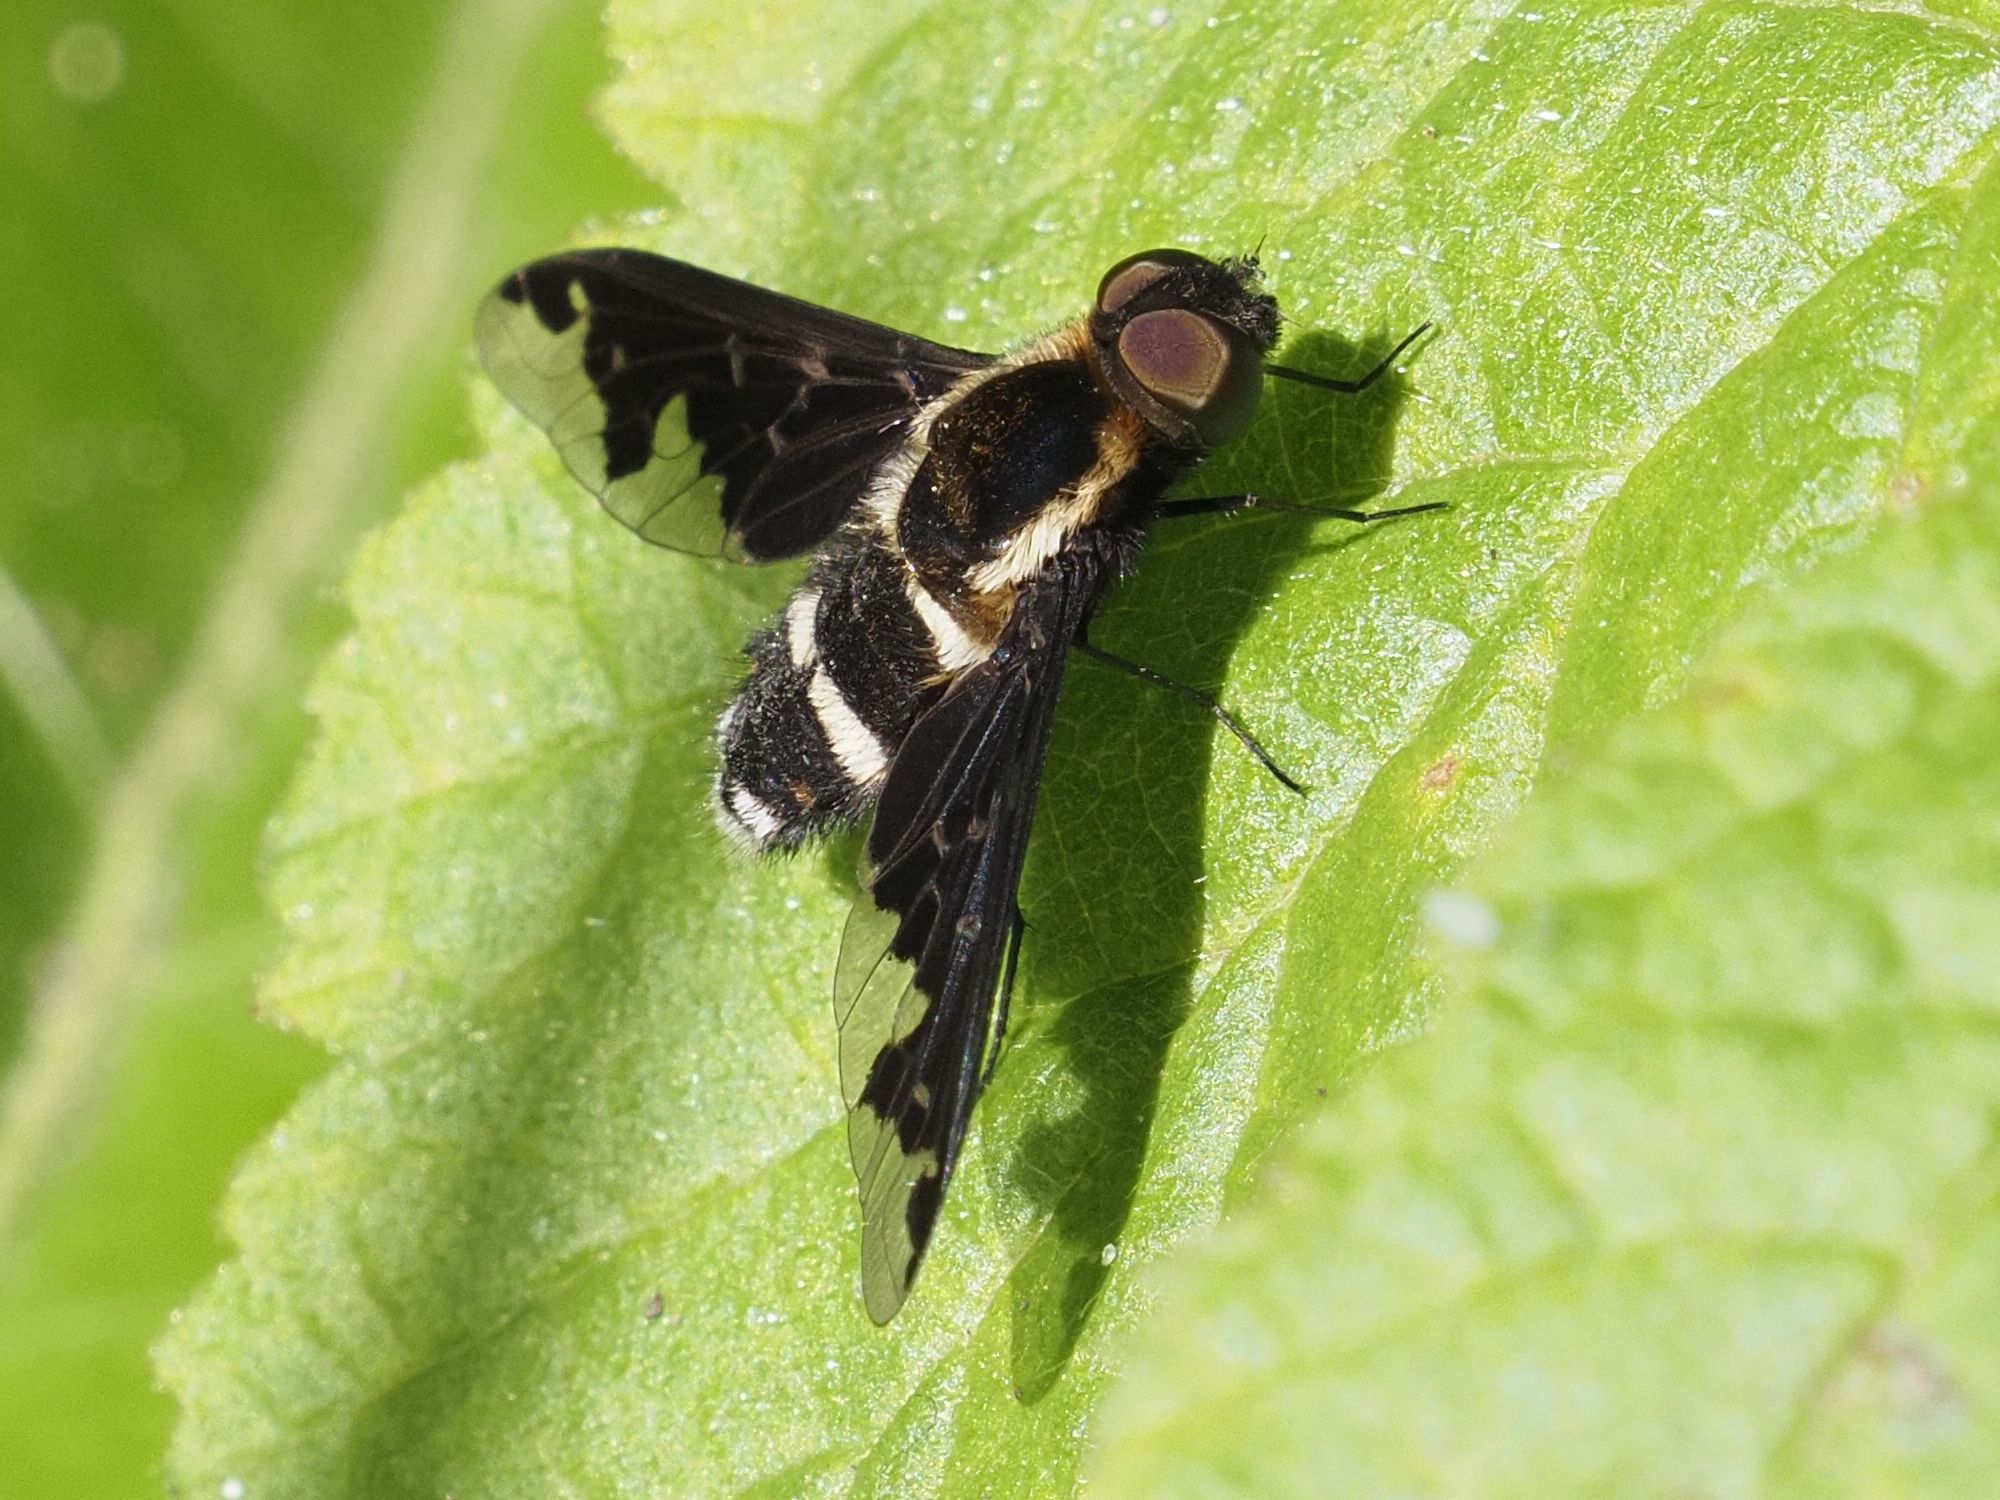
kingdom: Animalia
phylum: Arthropoda
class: Insecta
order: Diptera
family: Bombyliidae
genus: Hemipenthes
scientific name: Hemipenthes maura
